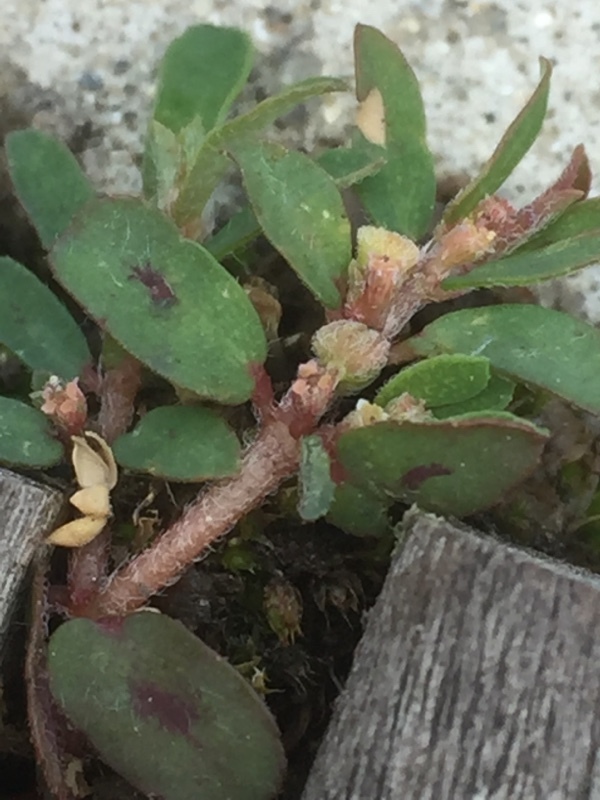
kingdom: Plantae
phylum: Tracheophyta
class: Magnoliopsida
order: Malpighiales
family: Euphorbiaceae
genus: Euphorbia
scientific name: Euphorbia maculata
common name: Spotted spurge
